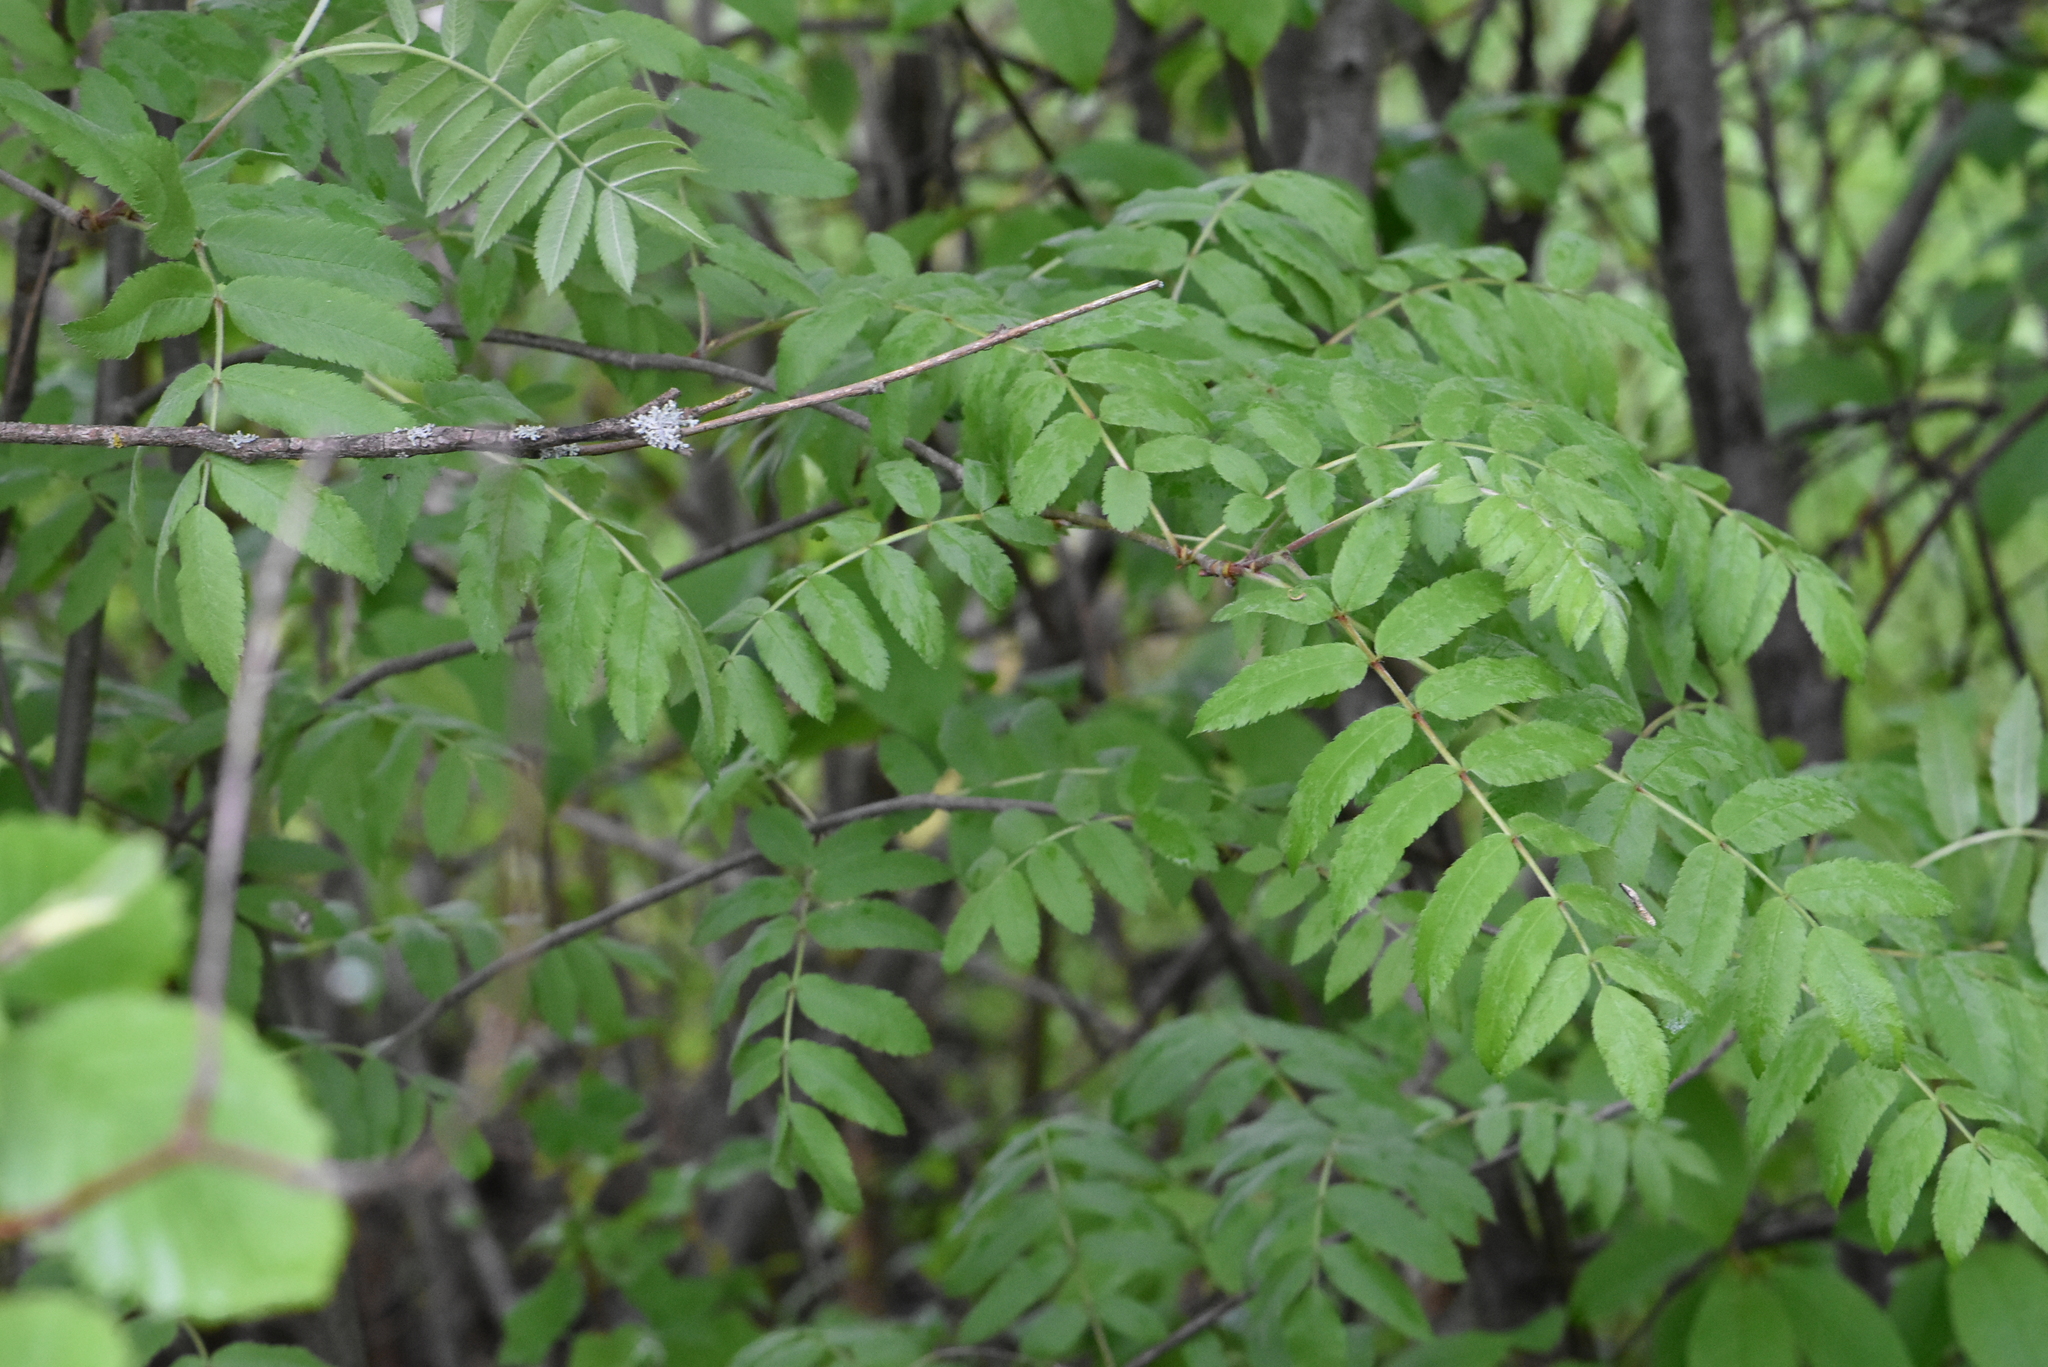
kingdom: Plantae
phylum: Tracheophyta
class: Magnoliopsida
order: Rosales
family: Rosaceae
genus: Sorbus
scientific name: Sorbus aucuparia
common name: Rowan
